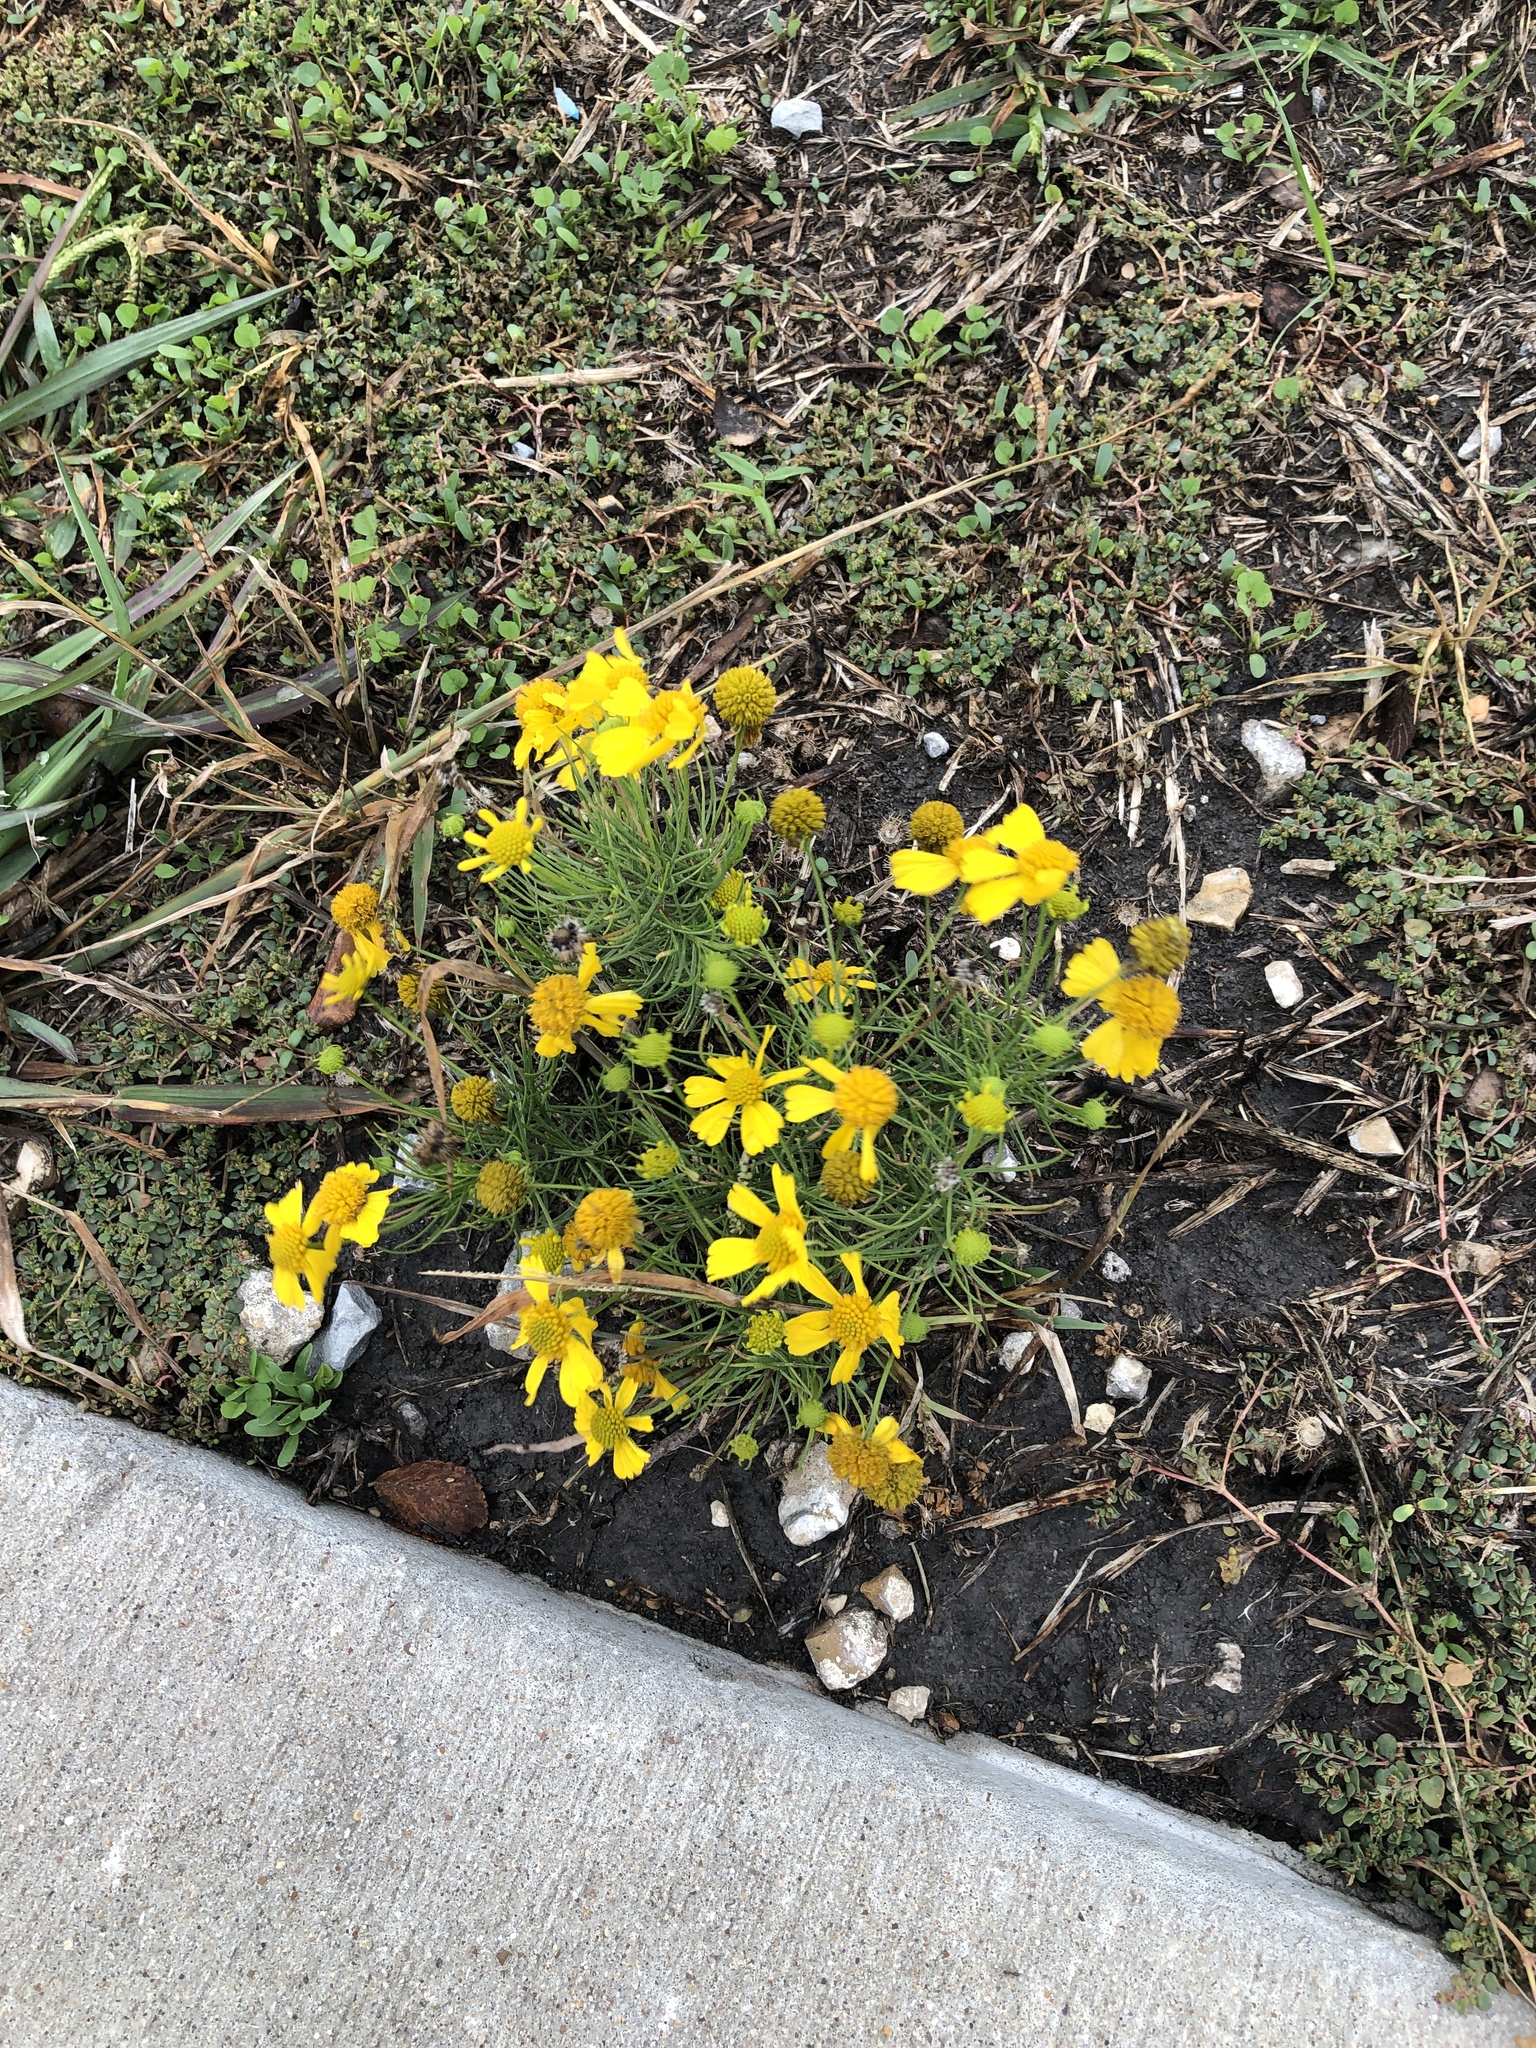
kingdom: Plantae
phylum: Tracheophyta
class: Magnoliopsida
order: Asterales
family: Asteraceae
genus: Helenium
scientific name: Helenium amarum
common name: Bitter sneezeweed
